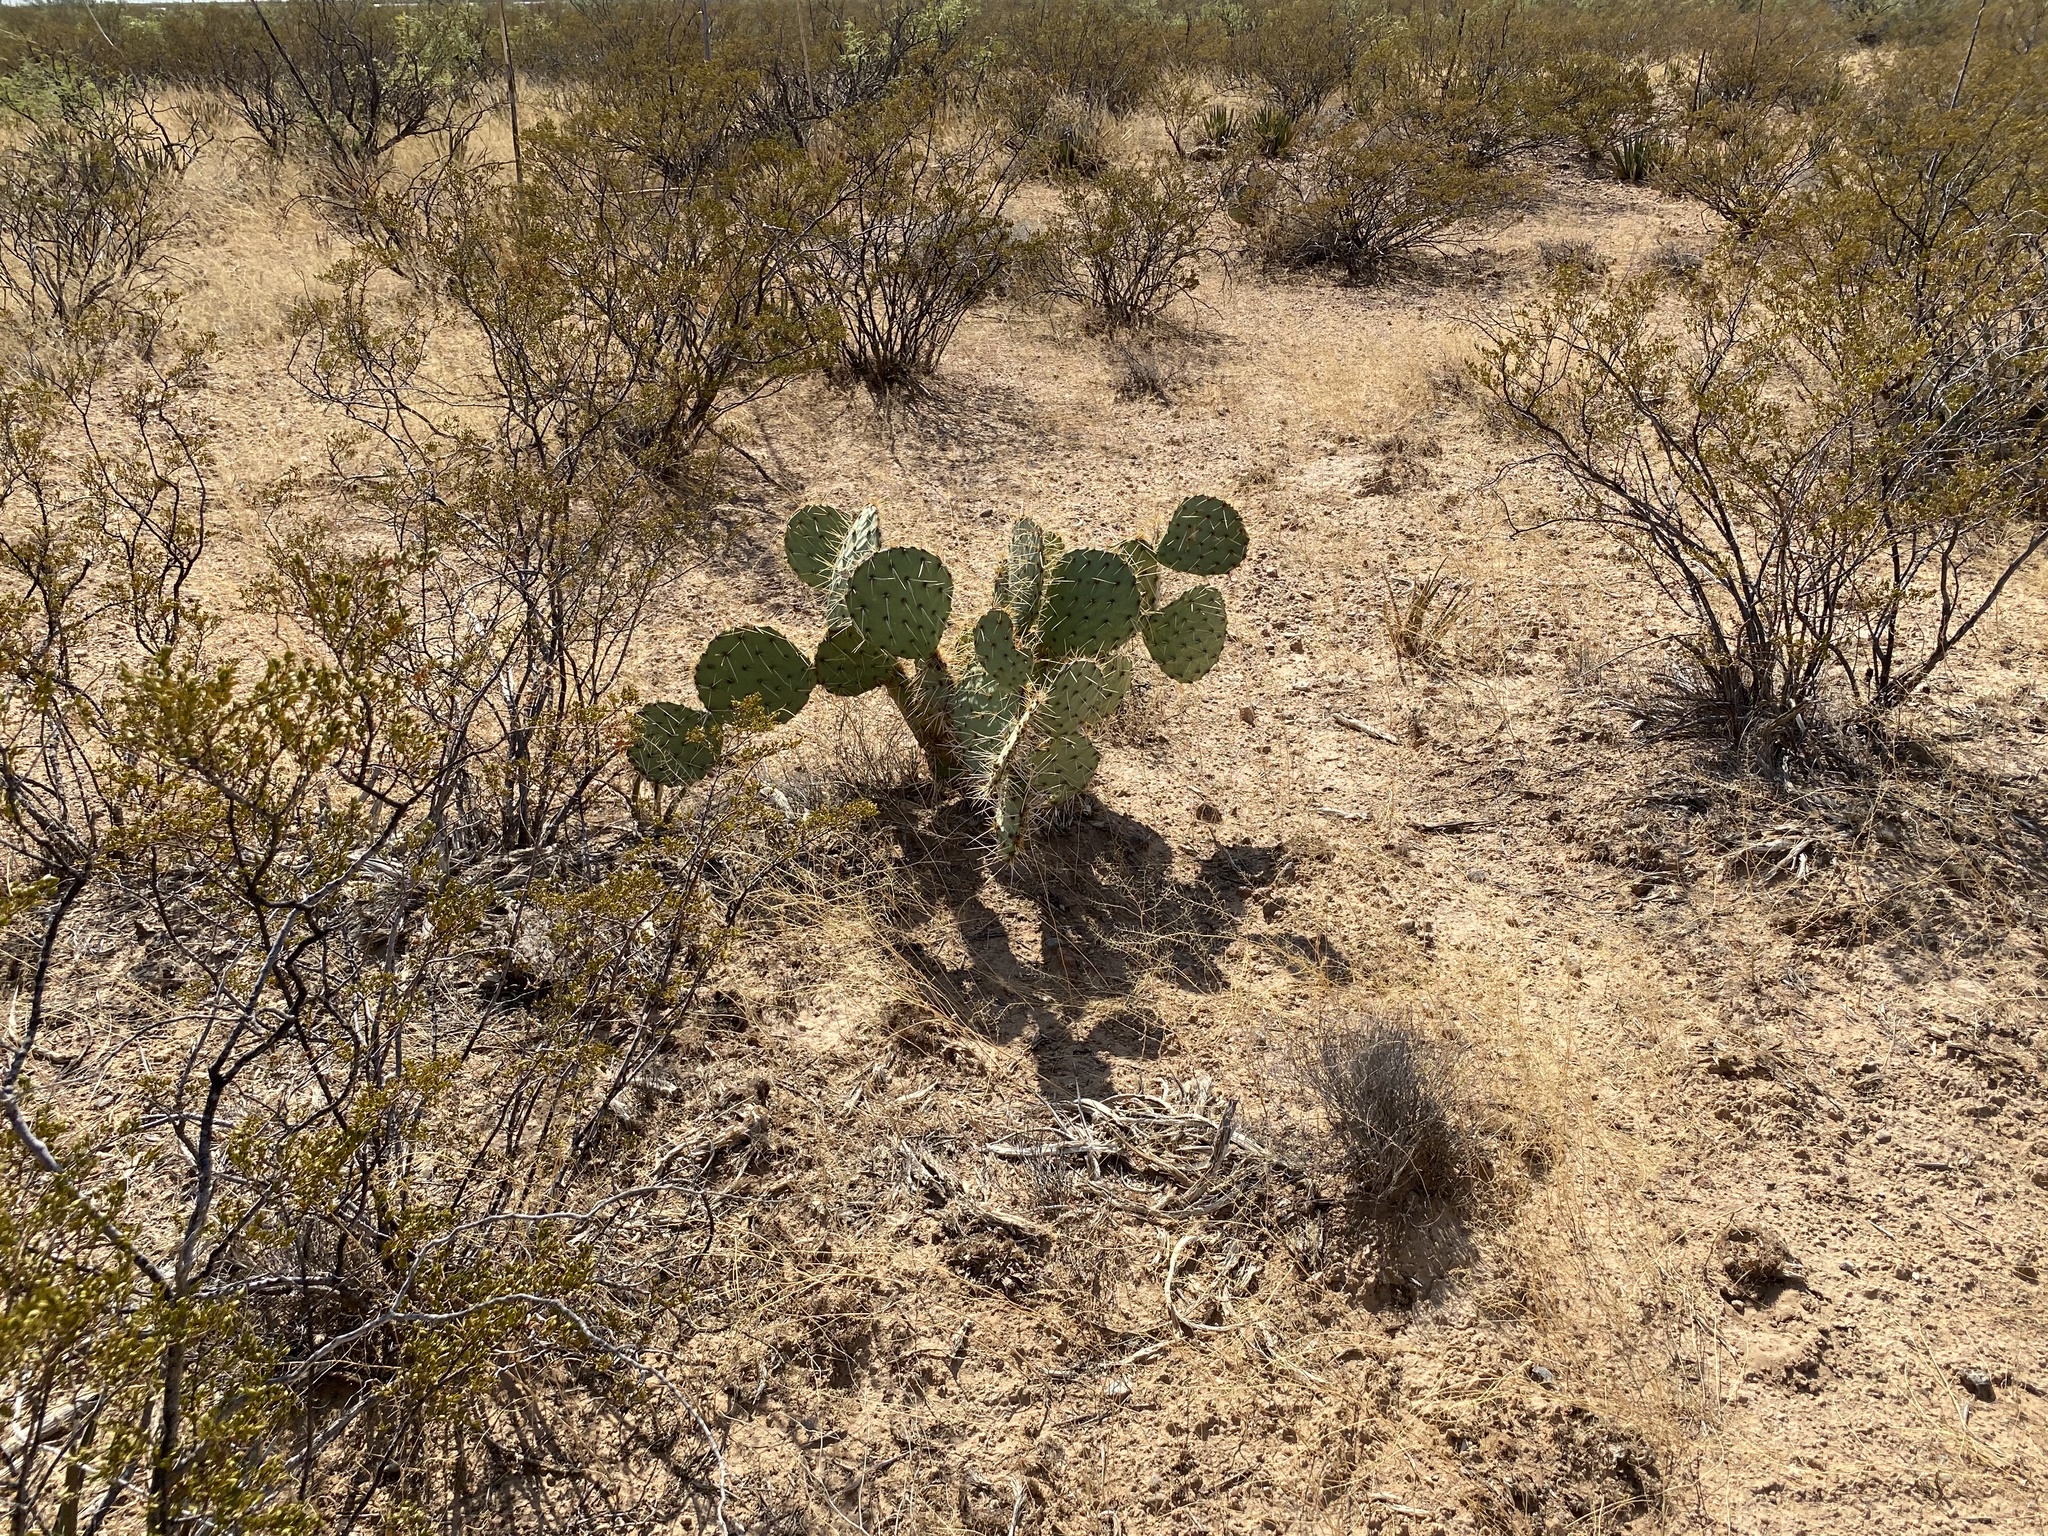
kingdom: Plantae
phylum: Tracheophyta
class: Magnoliopsida
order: Caryophyllales
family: Cactaceae
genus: Opuntia
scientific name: Opuntia engelmannii
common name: Cactus-apple
